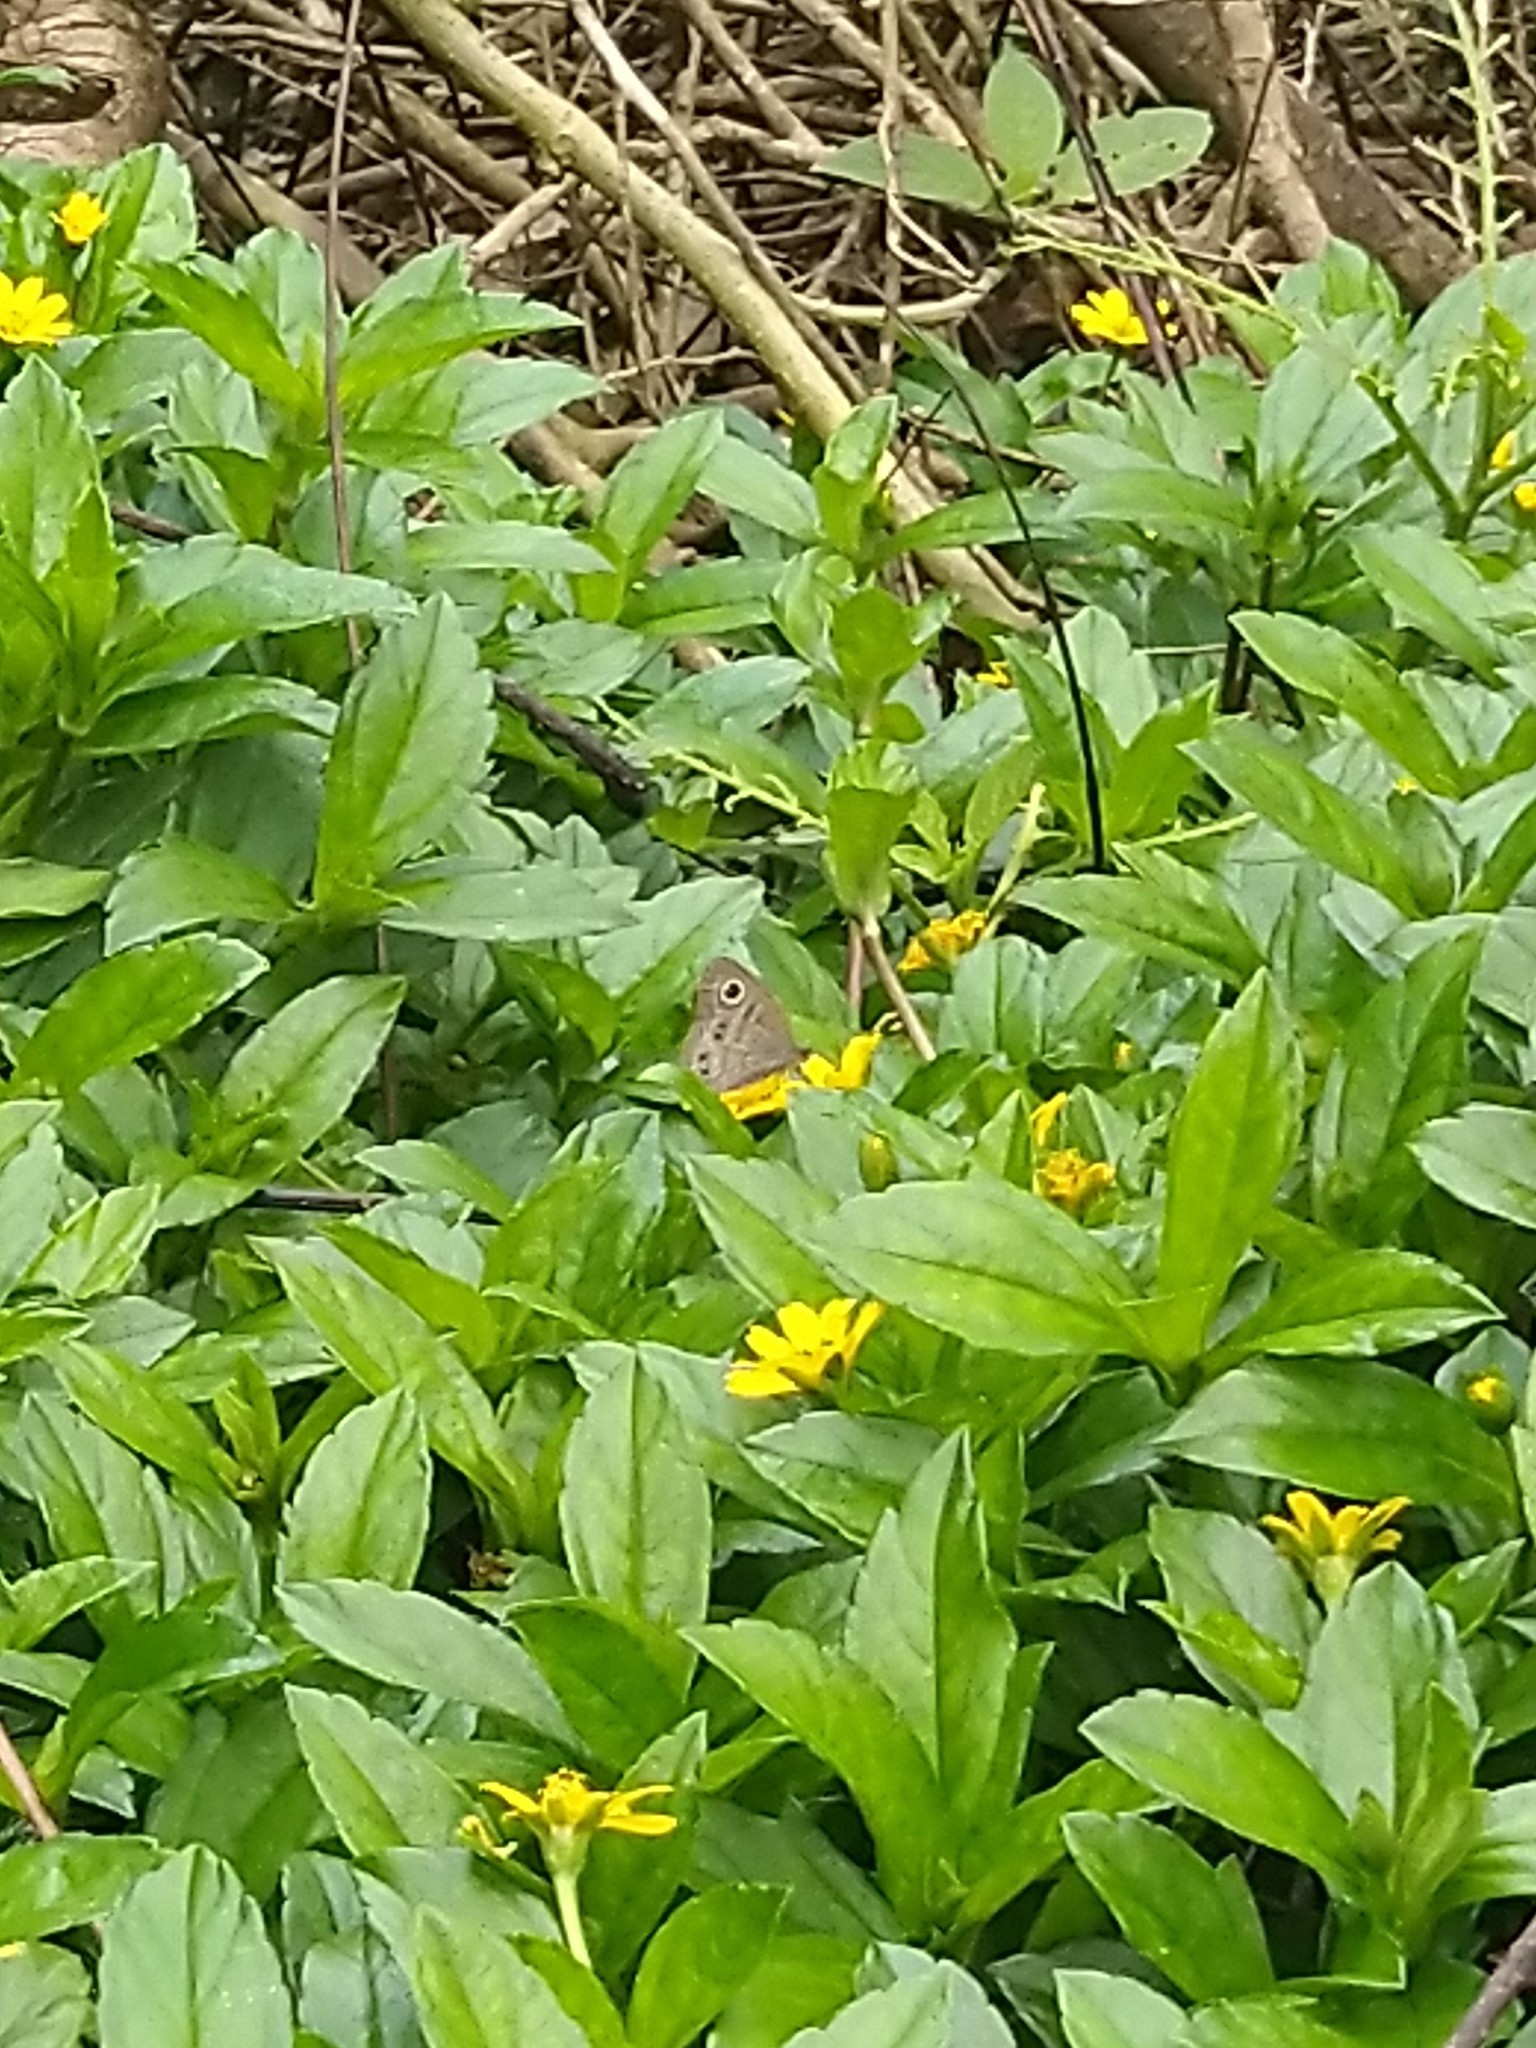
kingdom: Animalia
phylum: Arthropoda
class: Insecta
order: Lepidoptera
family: Nymphalidae
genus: Ypthima
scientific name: Ypthima baldus
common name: Common five-ring
